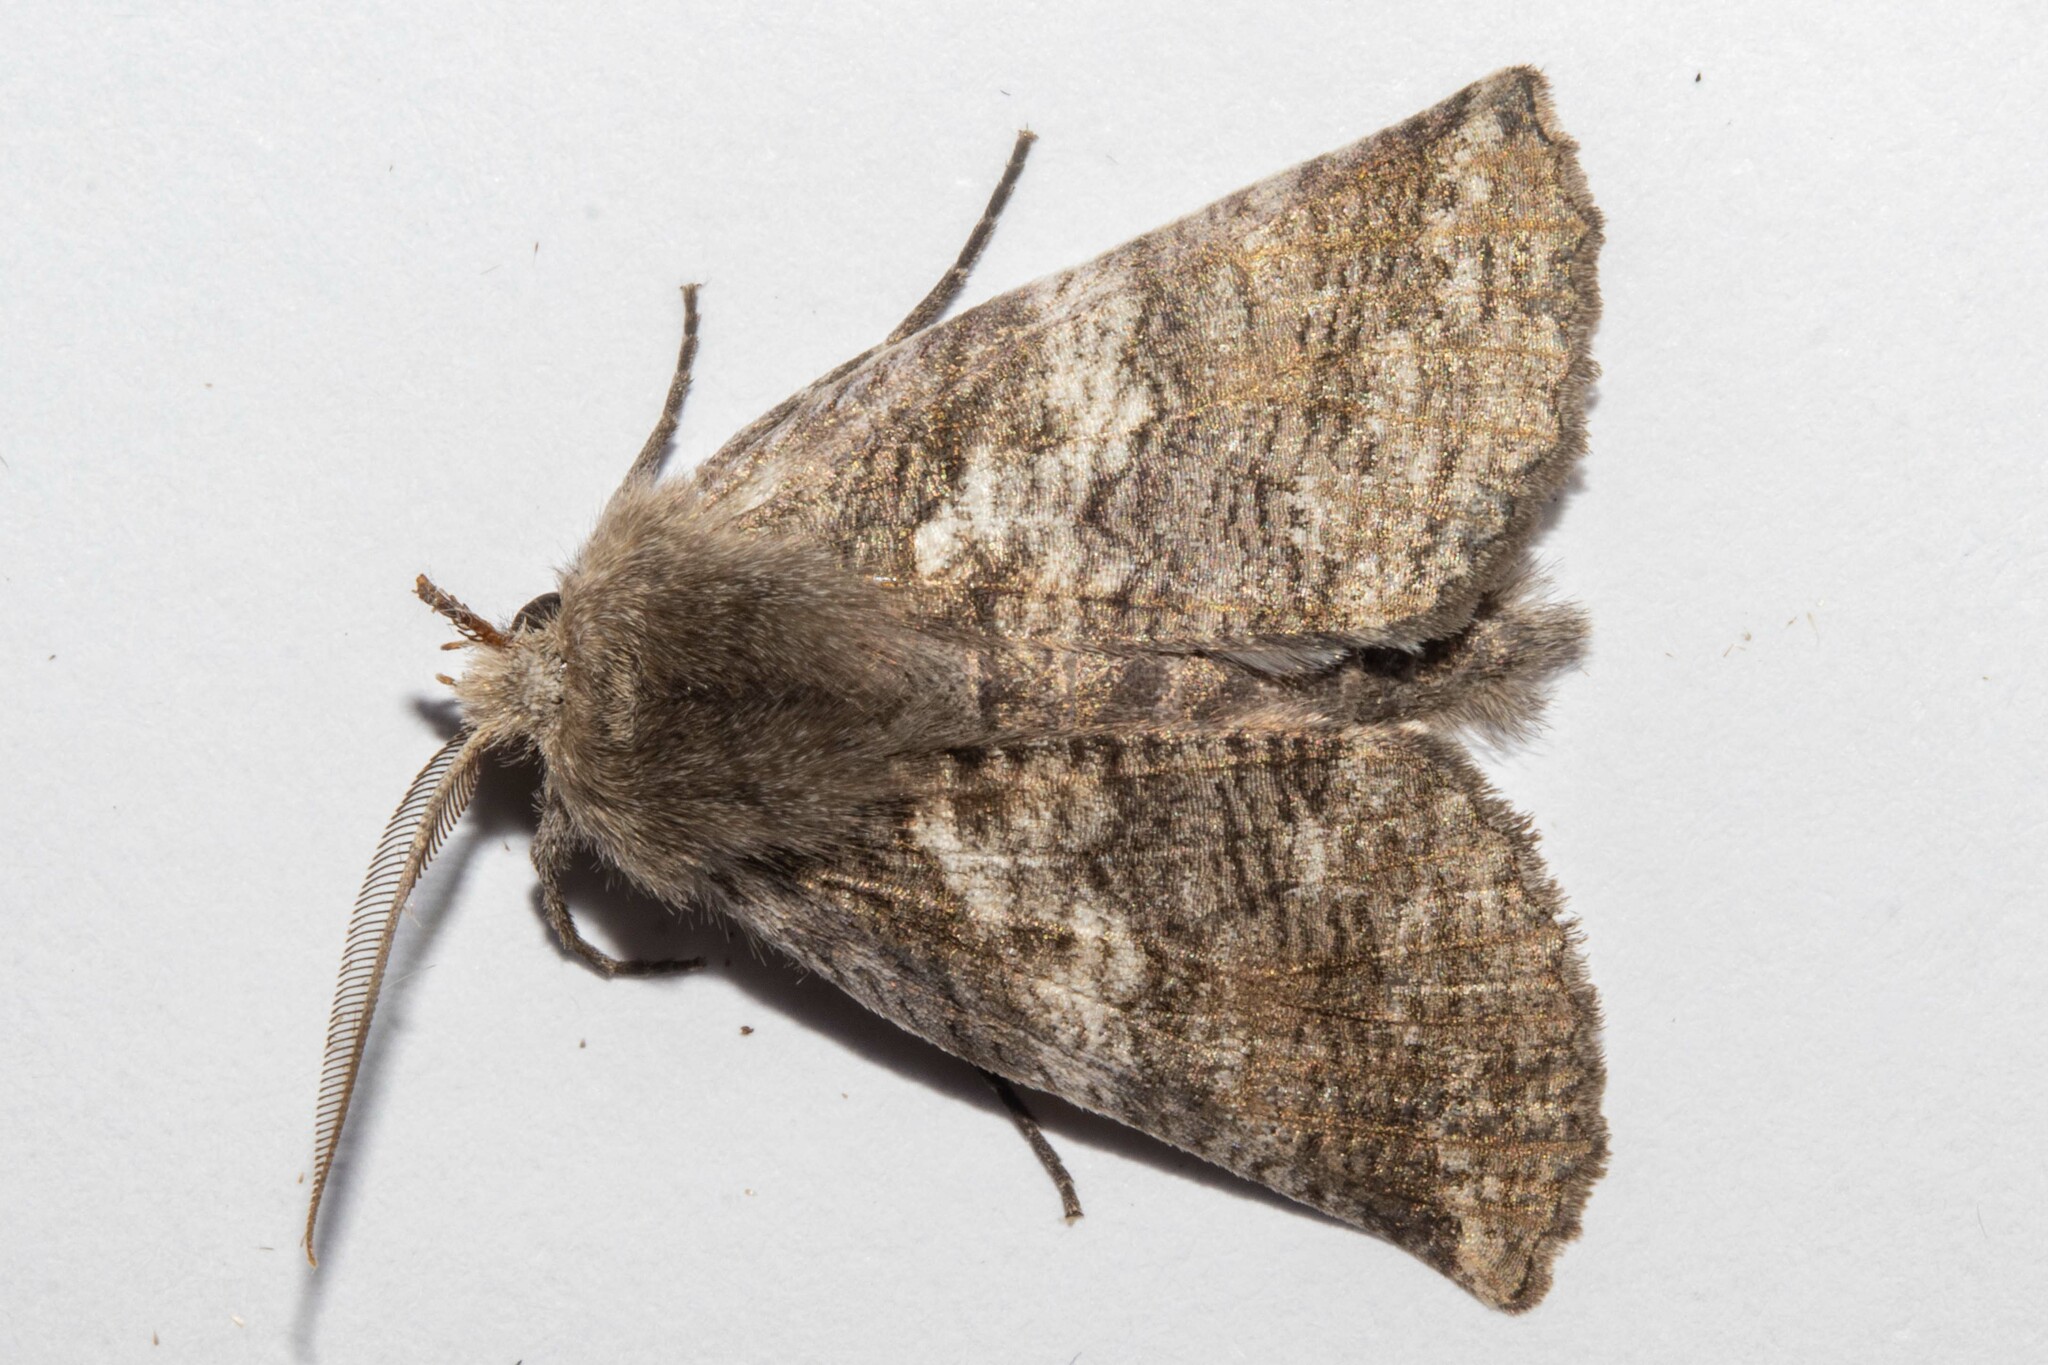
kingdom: Animalia
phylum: Arthropoda
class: Insecta
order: Lepidoptera
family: Geometridae
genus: Declana
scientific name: Declana
